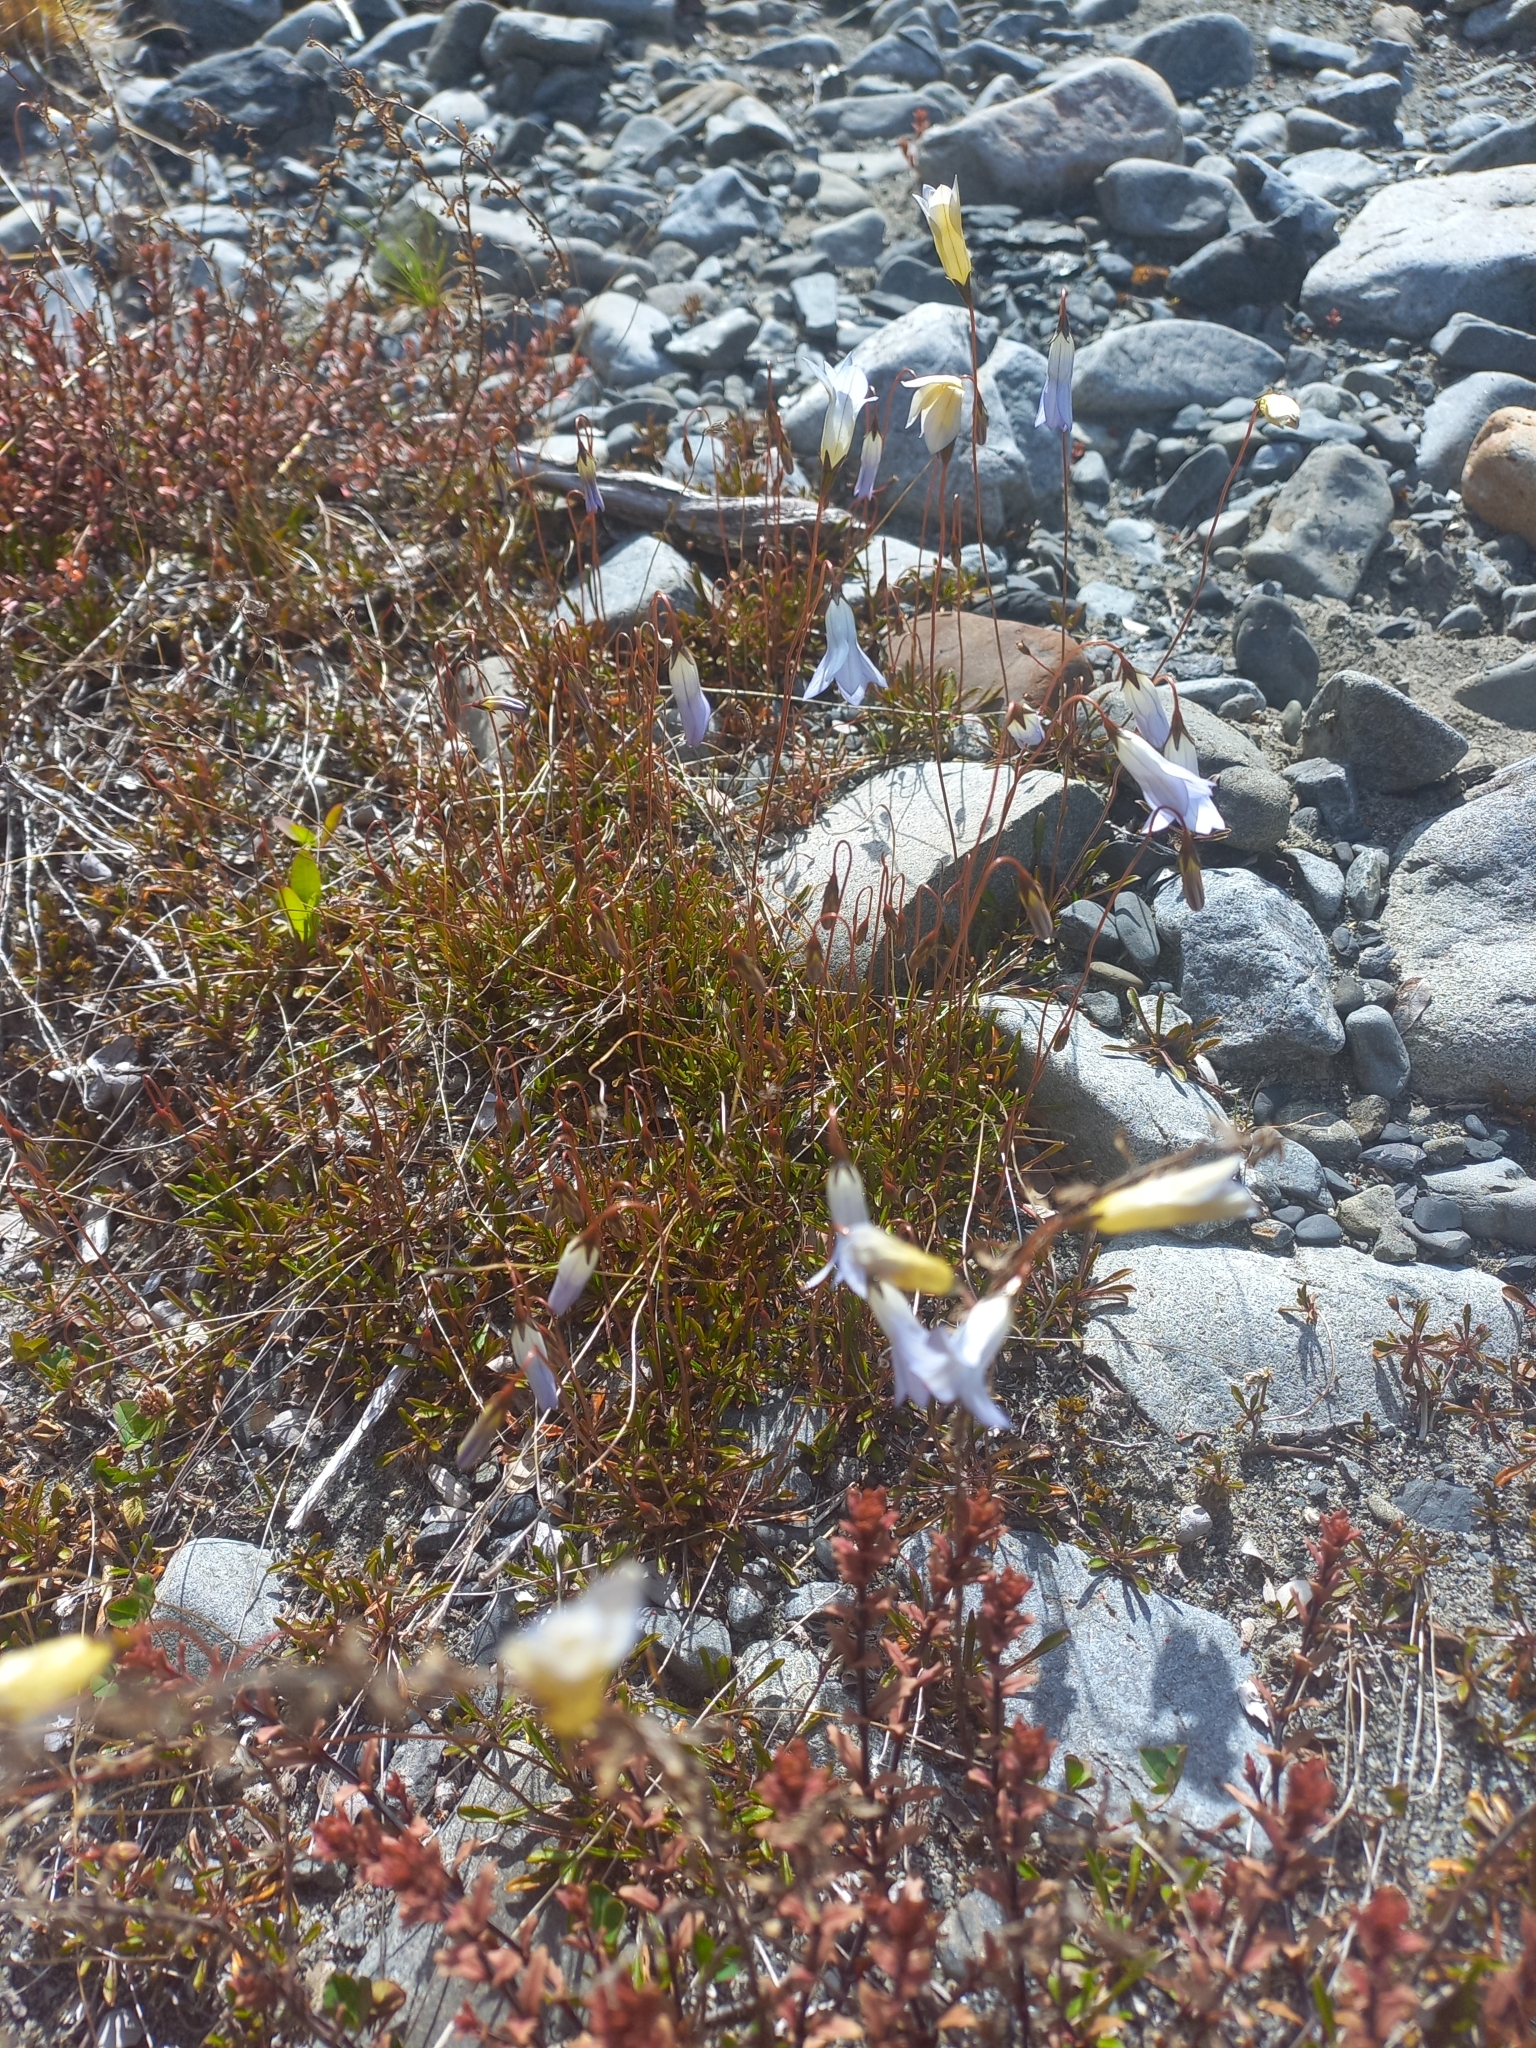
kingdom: Plantae
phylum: Tracheophyta
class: Magnoliopsida
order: Asterales
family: Campanulaceae
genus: Wahlenbergia
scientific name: Wahlenbergia albomarginata
